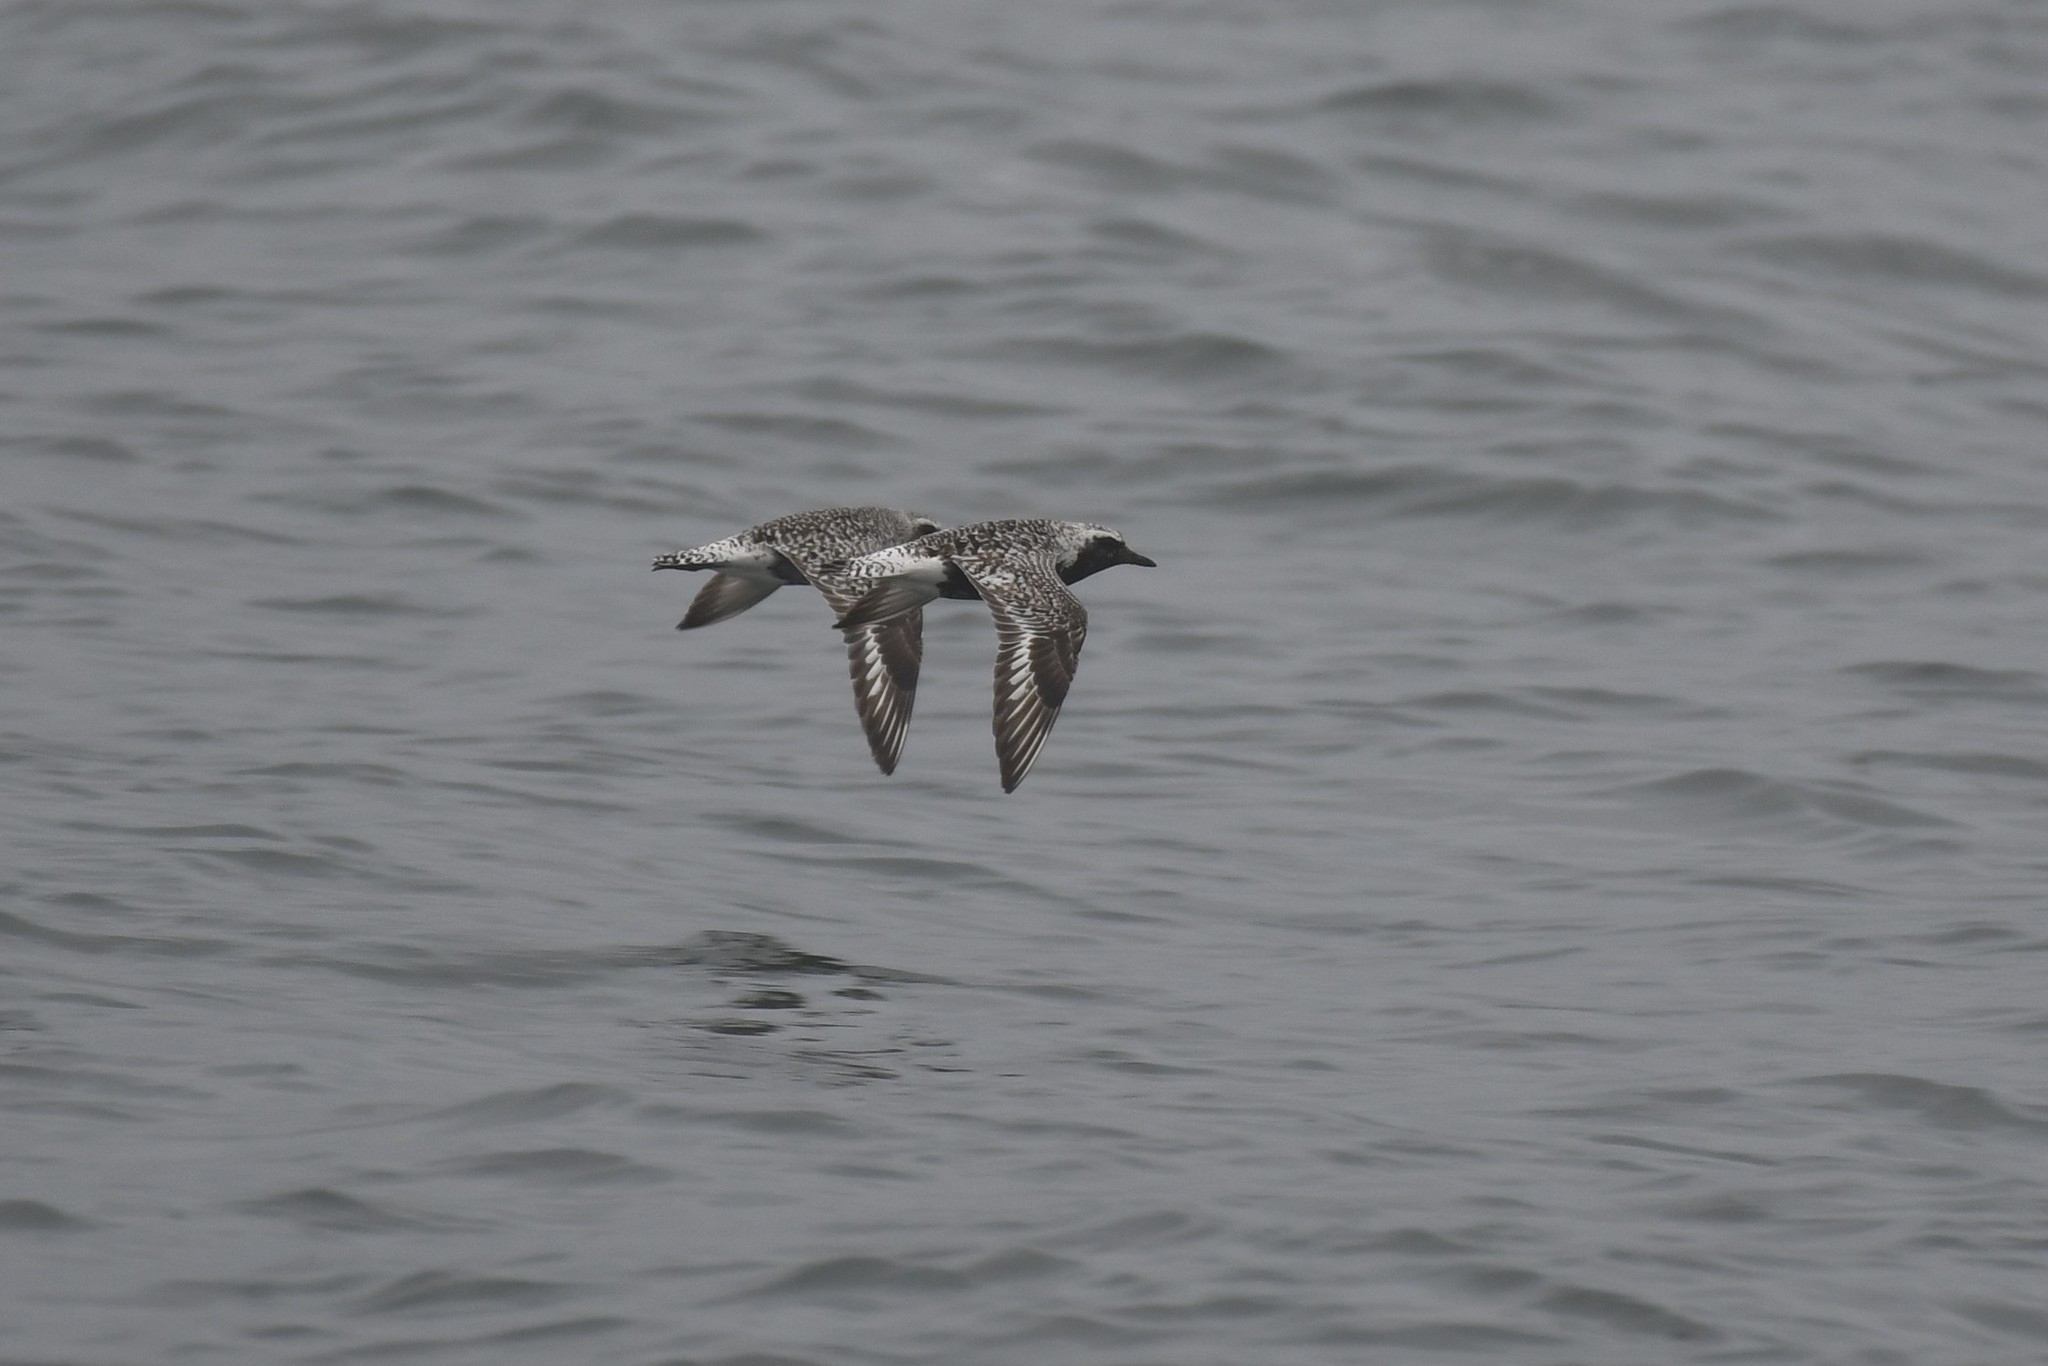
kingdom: Animalia
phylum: Chordata
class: Aves
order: Charadriiformes
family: Charadriidae
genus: Pluvialis
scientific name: Pluvialis squatarola
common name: Grey plover
